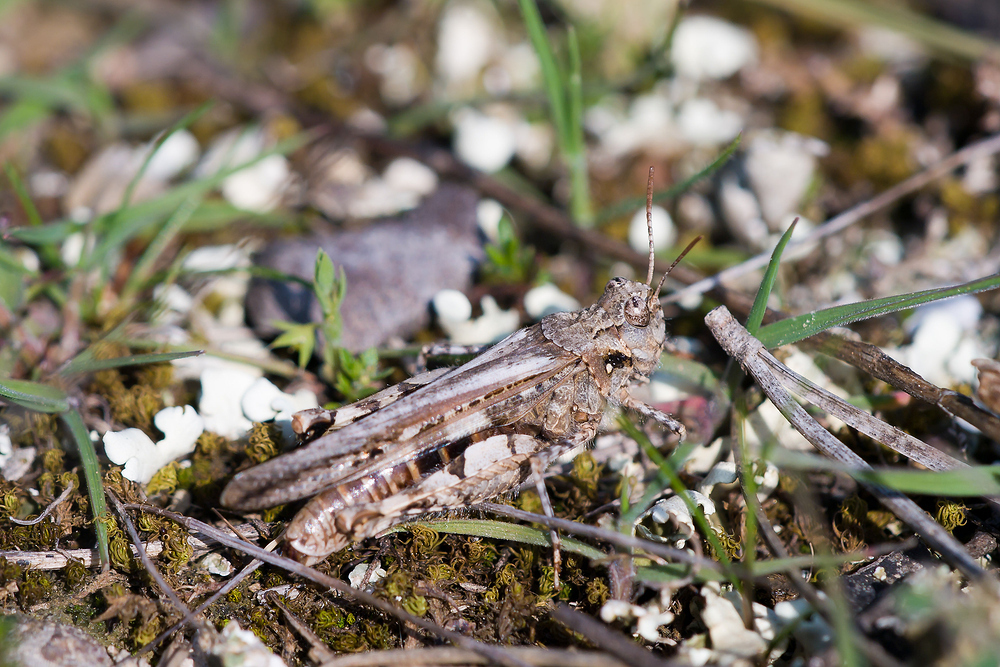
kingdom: Animalia
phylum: Arthropoda
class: Insecta
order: Orthoptera
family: Acrididae
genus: Acrotylus
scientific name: Acrotylus insubricus
